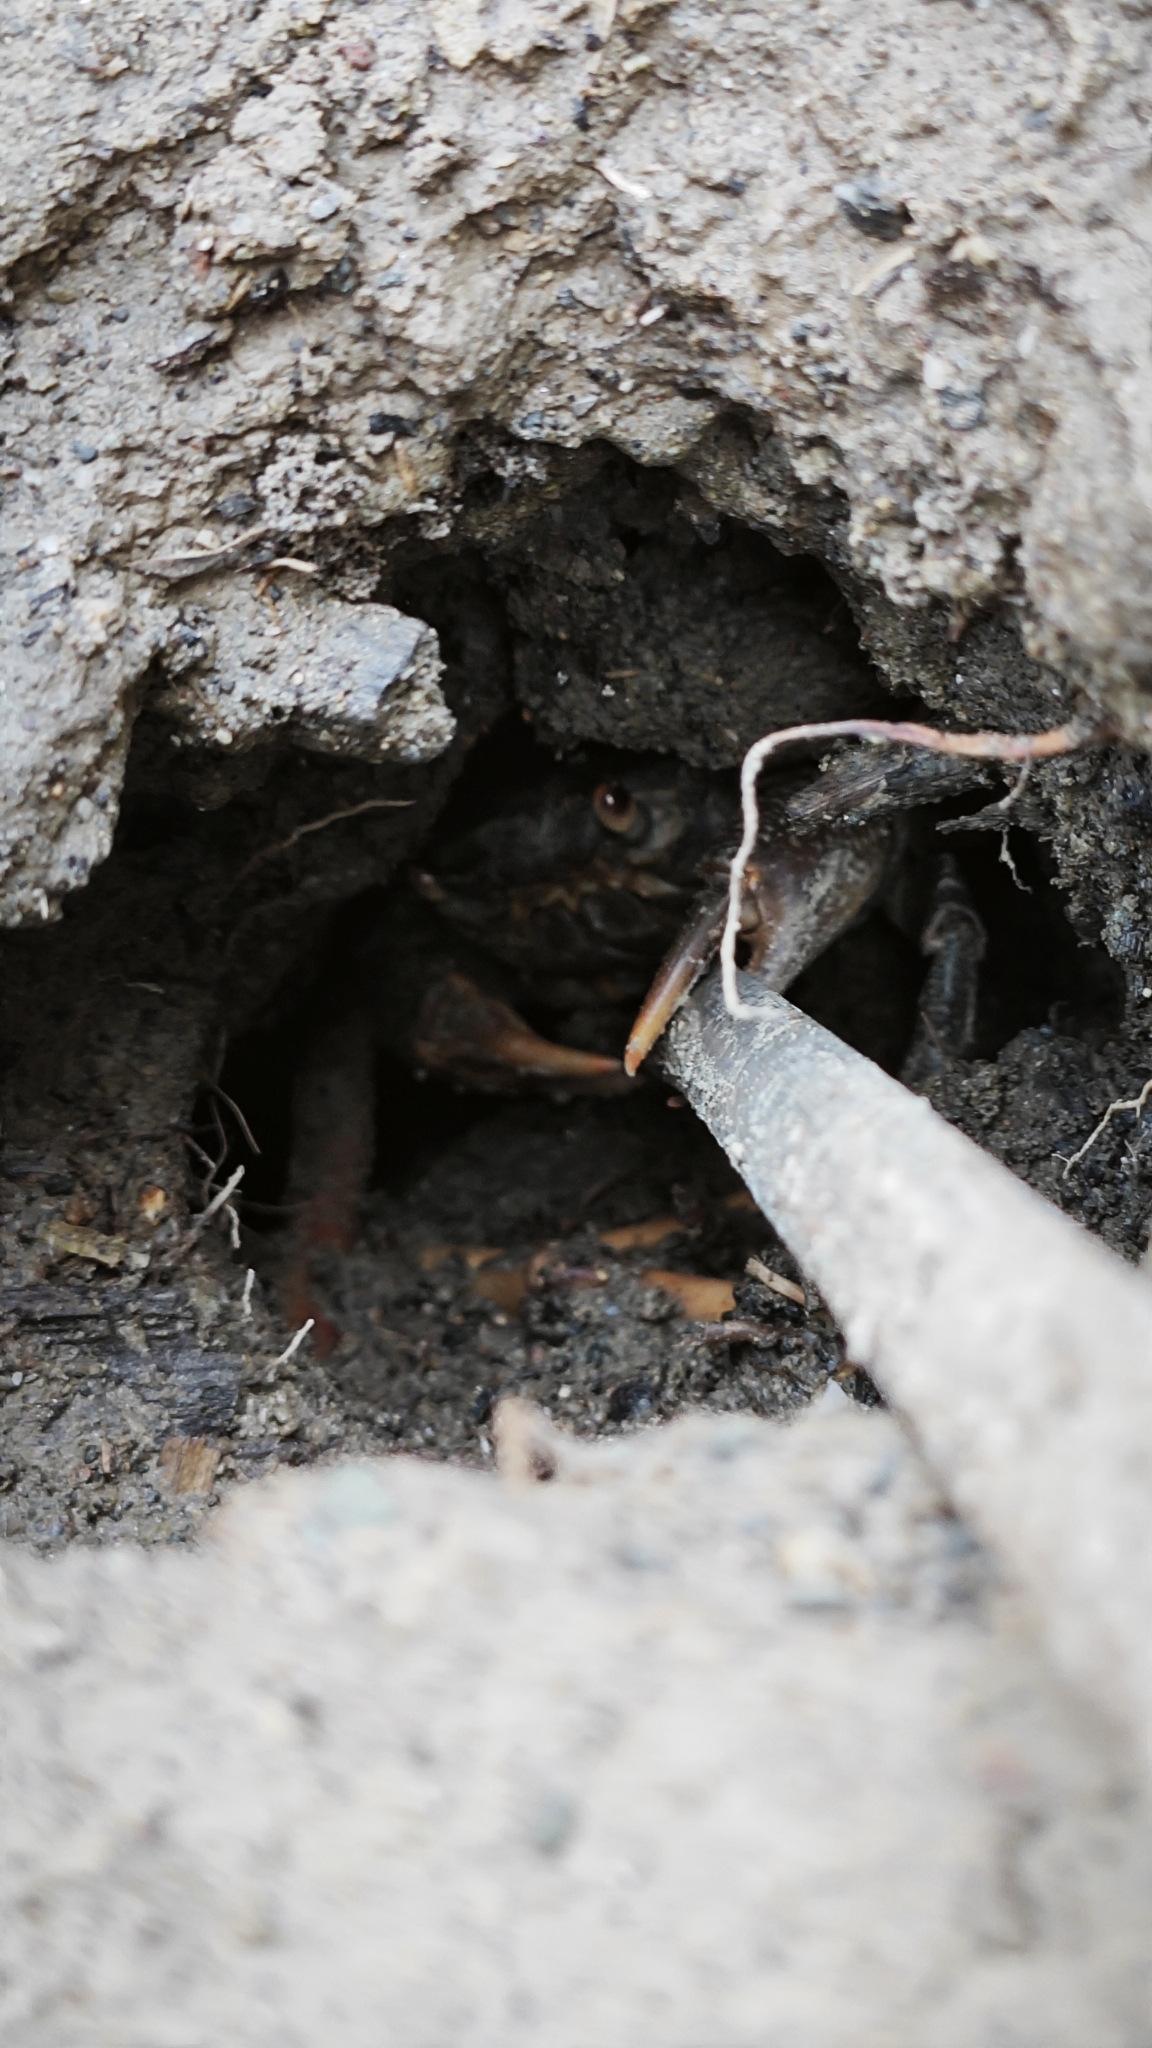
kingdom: Animalia
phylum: Arthropoda
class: Malacostraca
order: Decapoda
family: Potamidae
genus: Potamon
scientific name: Potamon hippocratis
